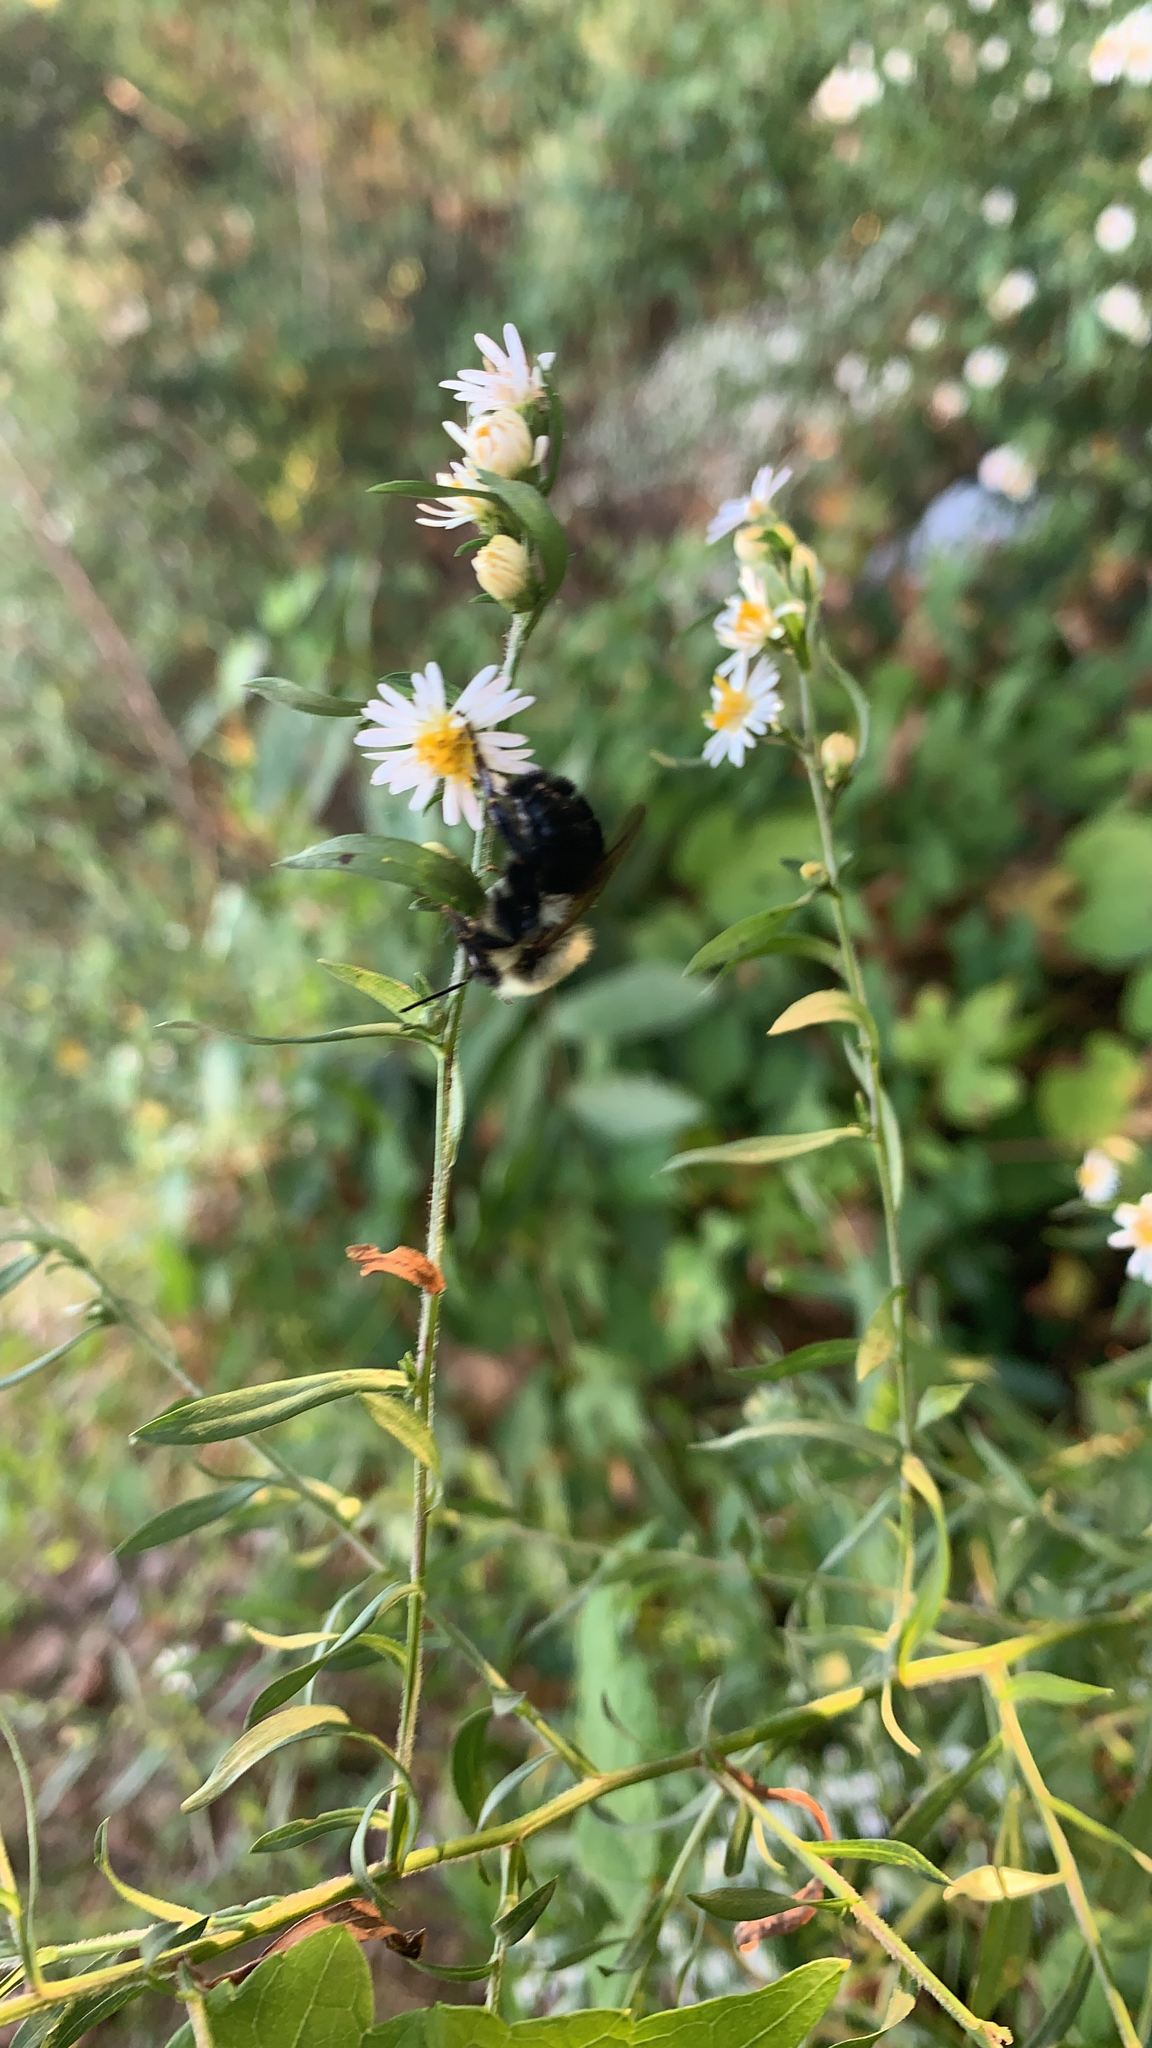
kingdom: Animalia
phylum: Arthropoda
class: Insecta
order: Hymenoptera
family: Apidae
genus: Bombus
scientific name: Bombus impatiens
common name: Common eastern bumble bee
